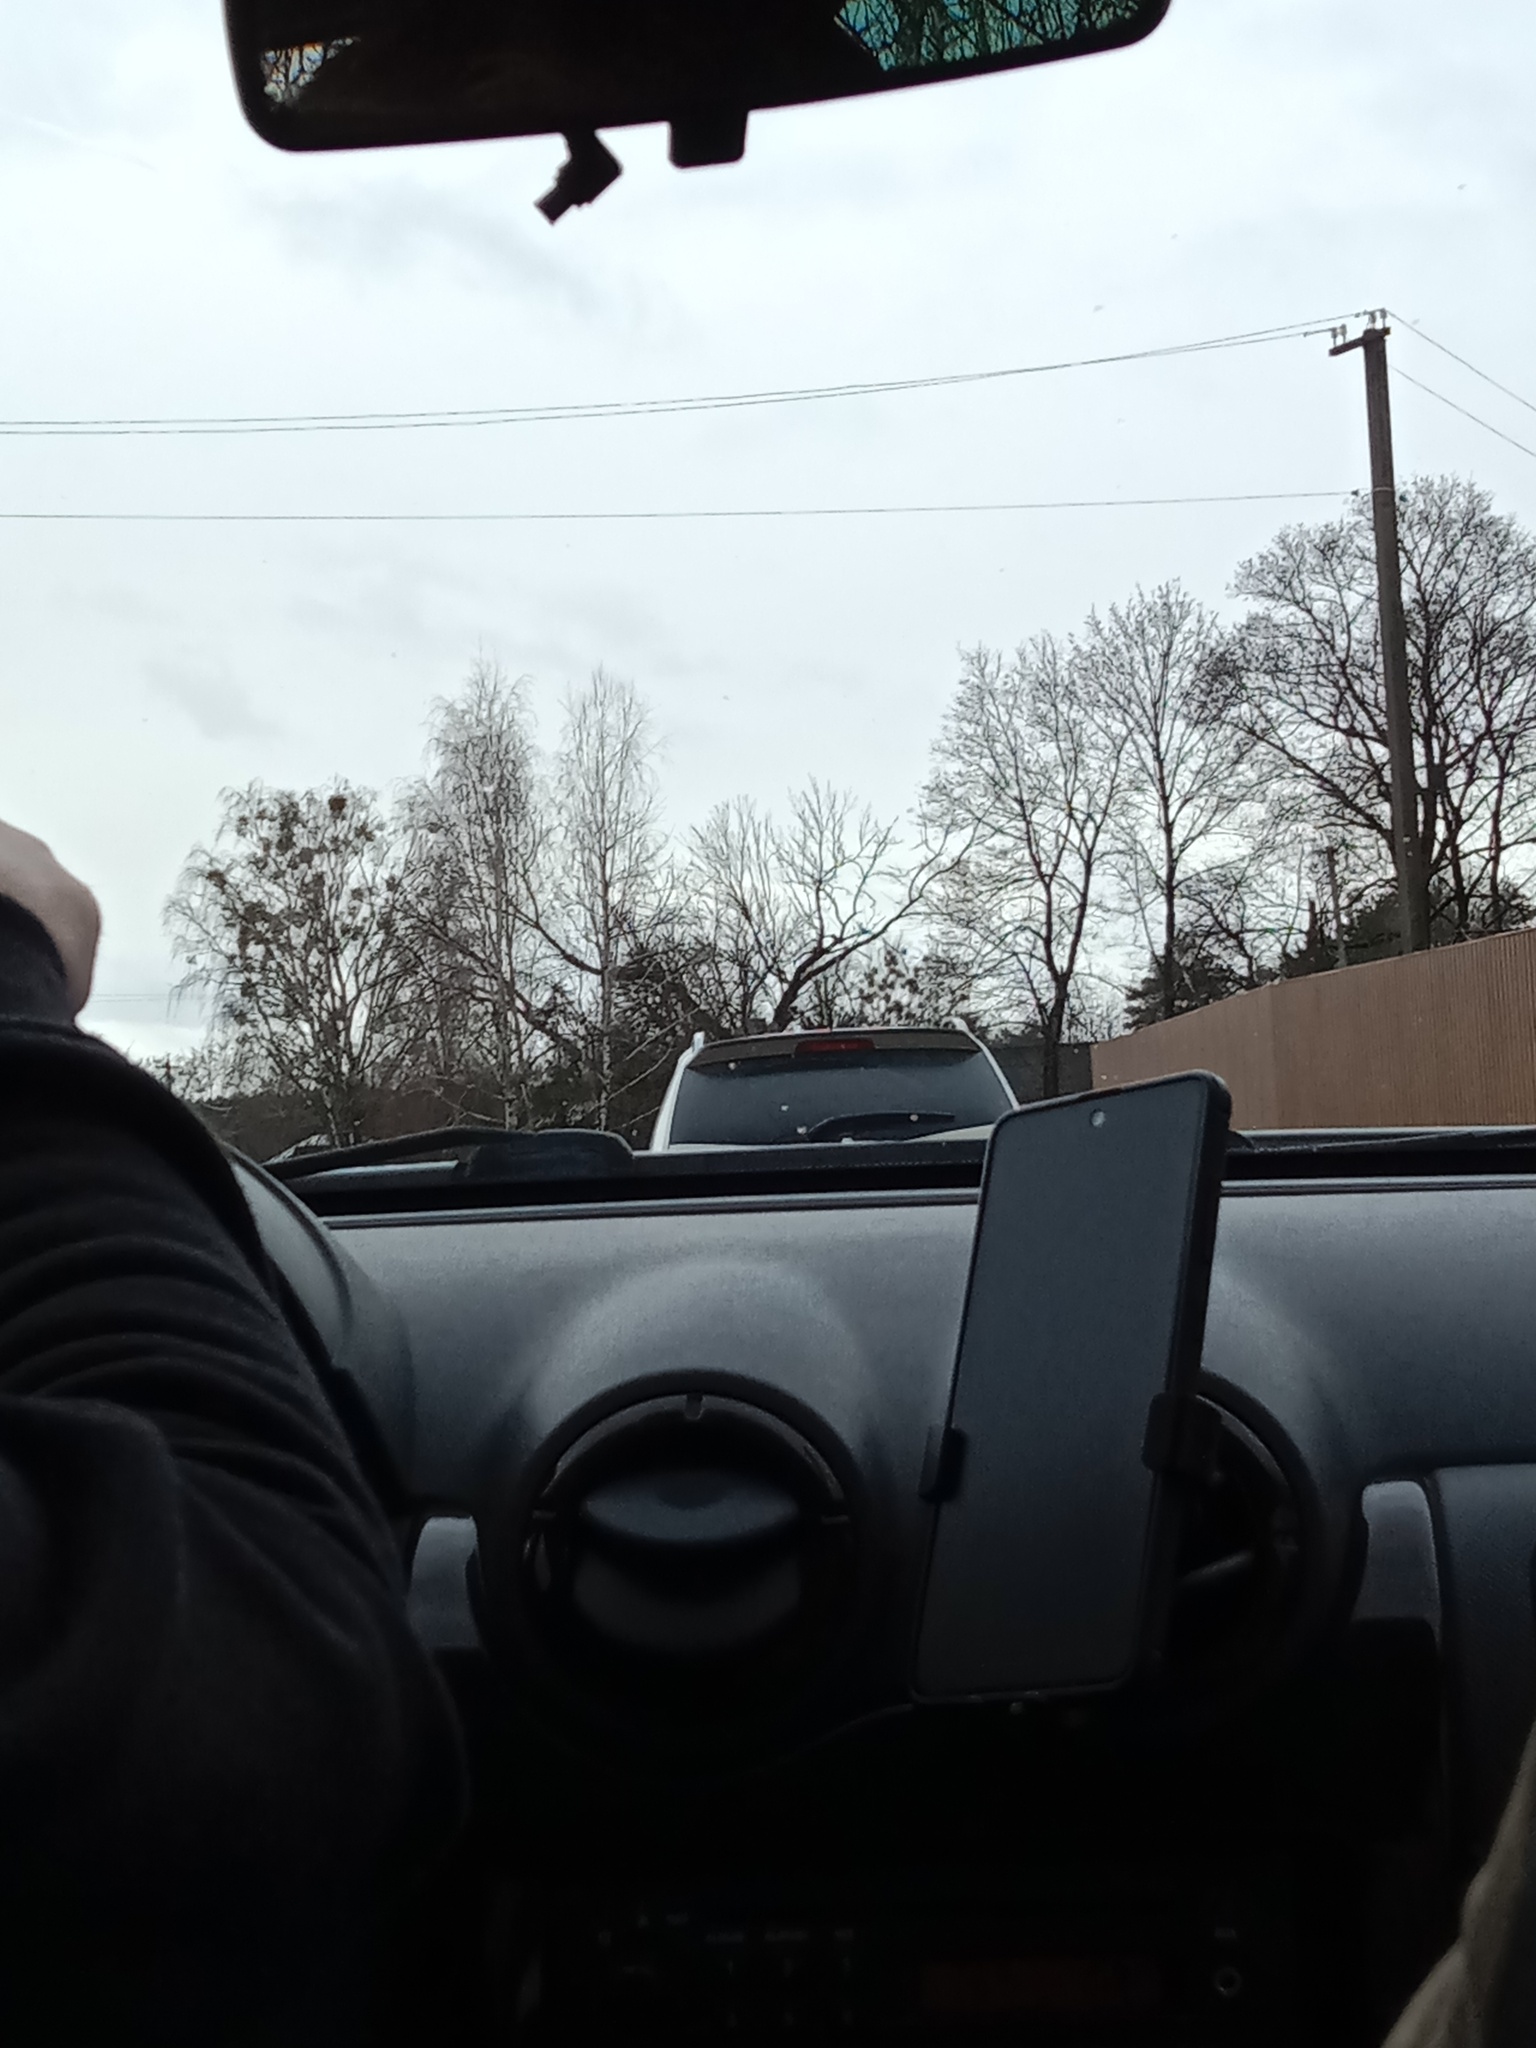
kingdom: Plantae
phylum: Tracheophyta
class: Magnoliopsida
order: Santalales
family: Viscaceae
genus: Viscum
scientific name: Viscum album
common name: Mistletoe
